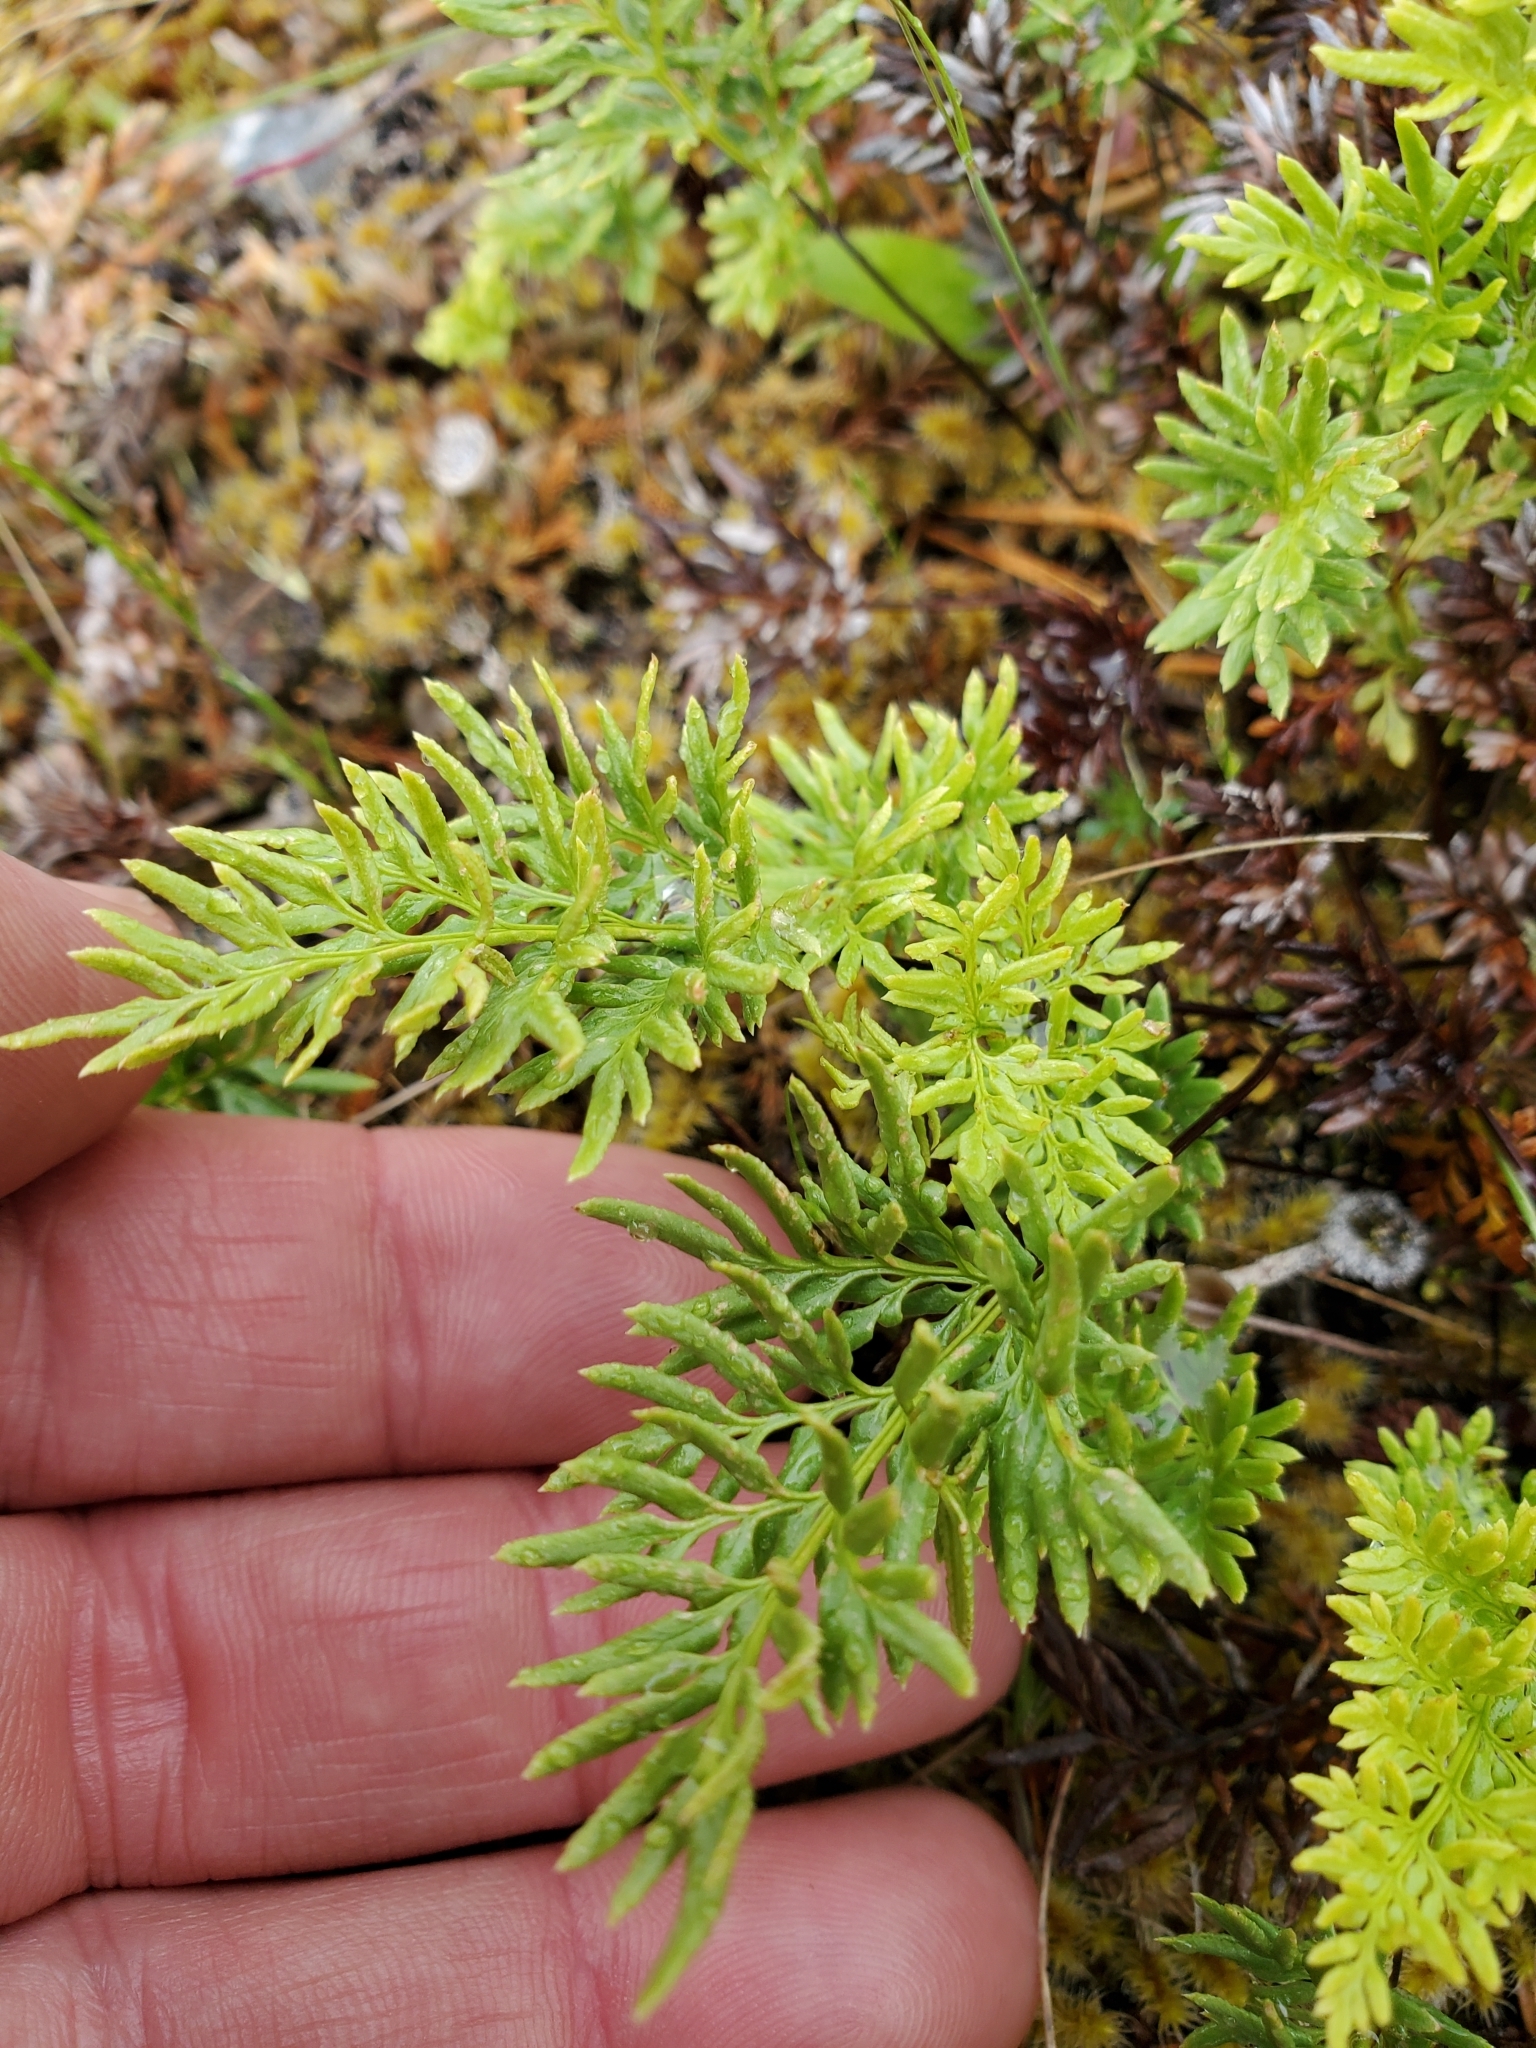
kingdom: Plantae
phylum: Tracheophyta
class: Polypodiopsida
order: Polypodiales
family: Pteridaceae
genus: Aspidotis
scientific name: Aspidotis densa
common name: Indian's dream
